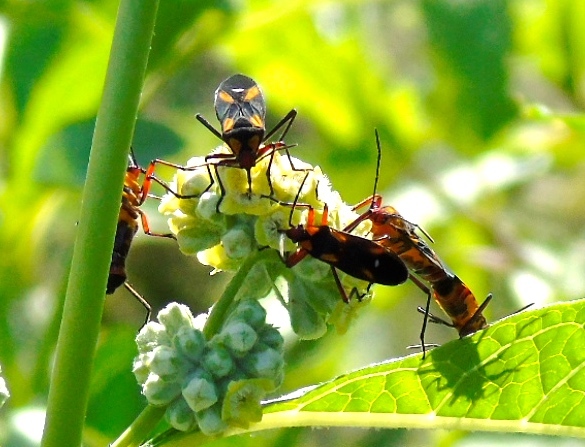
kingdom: Animalia
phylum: Arthropoda
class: Insecta
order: Hemiptera
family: Lygaeidae
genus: Oncopeltus
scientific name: Oncopeltus sexmaculatus
